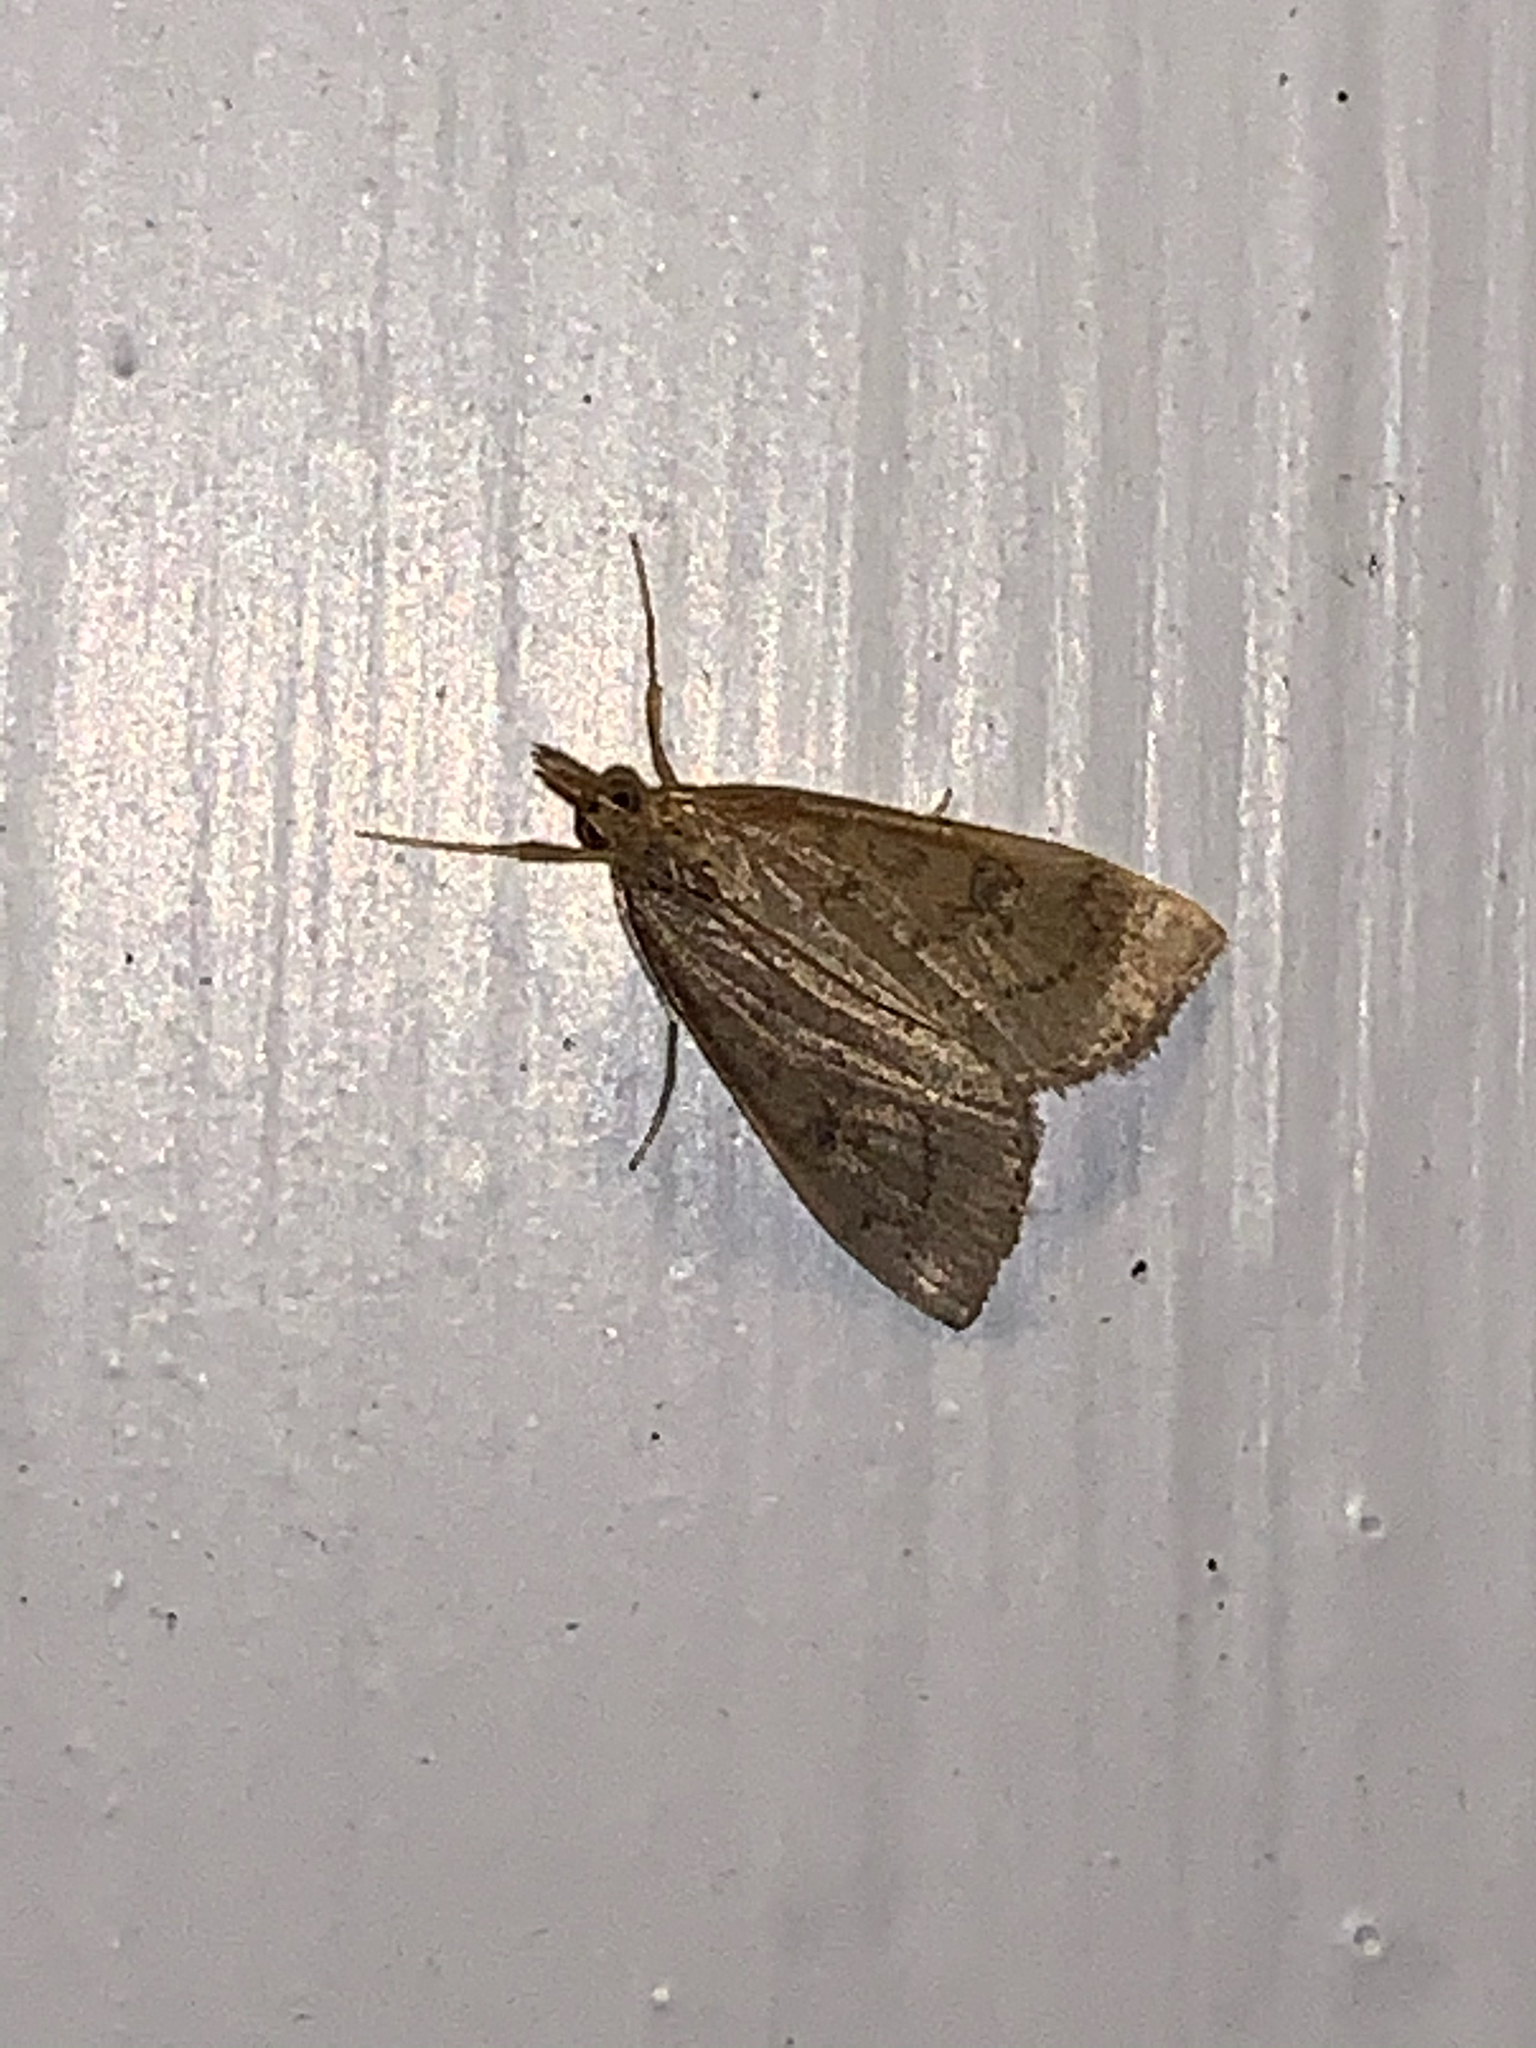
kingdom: Animalia
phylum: Arthropoda
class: Insecta
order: Lepidoptera
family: Crambidae
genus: Udea
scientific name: Udea rubigalis
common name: Celery leaftier moth
